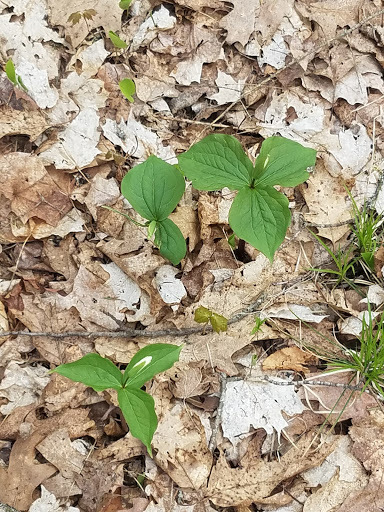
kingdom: Plantae
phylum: Tracheophyta
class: Liliopsida
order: Liliales
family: Melanthiaceae
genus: Trillium
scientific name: Trillium grandiflorum
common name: Great white trillium
